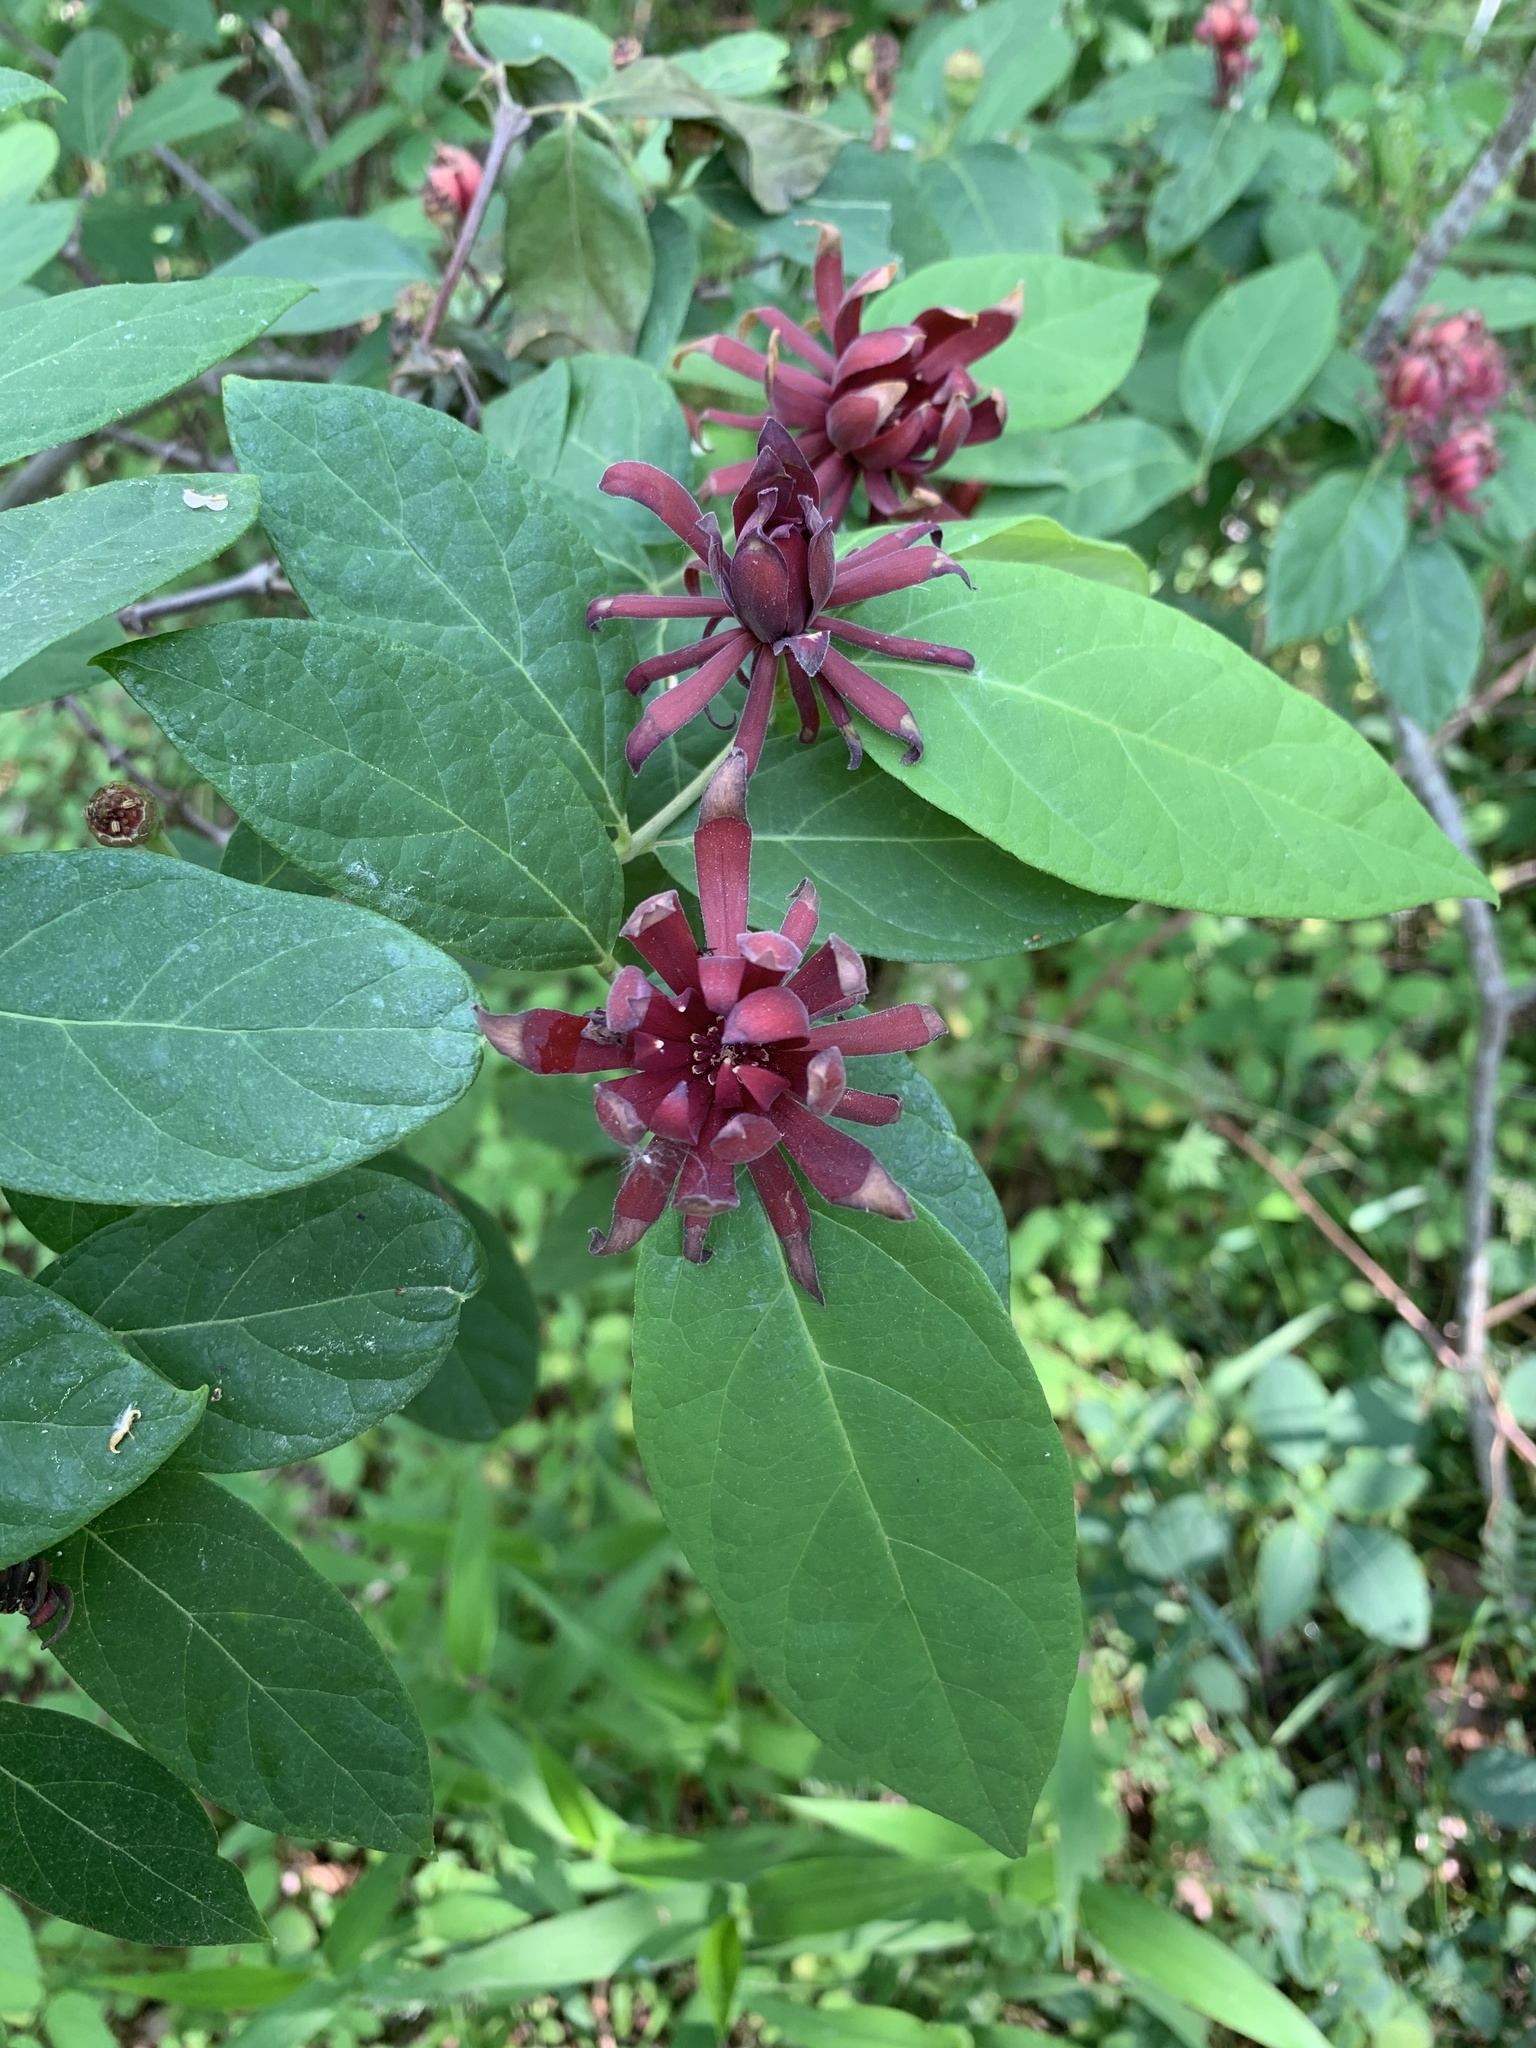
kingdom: Plantae
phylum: Tracheophyta
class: Magnoliopsida
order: Laurales
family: Calycanthaceae
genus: Calycanthus
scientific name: Calycanthus floridus
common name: Carolina-allspice
